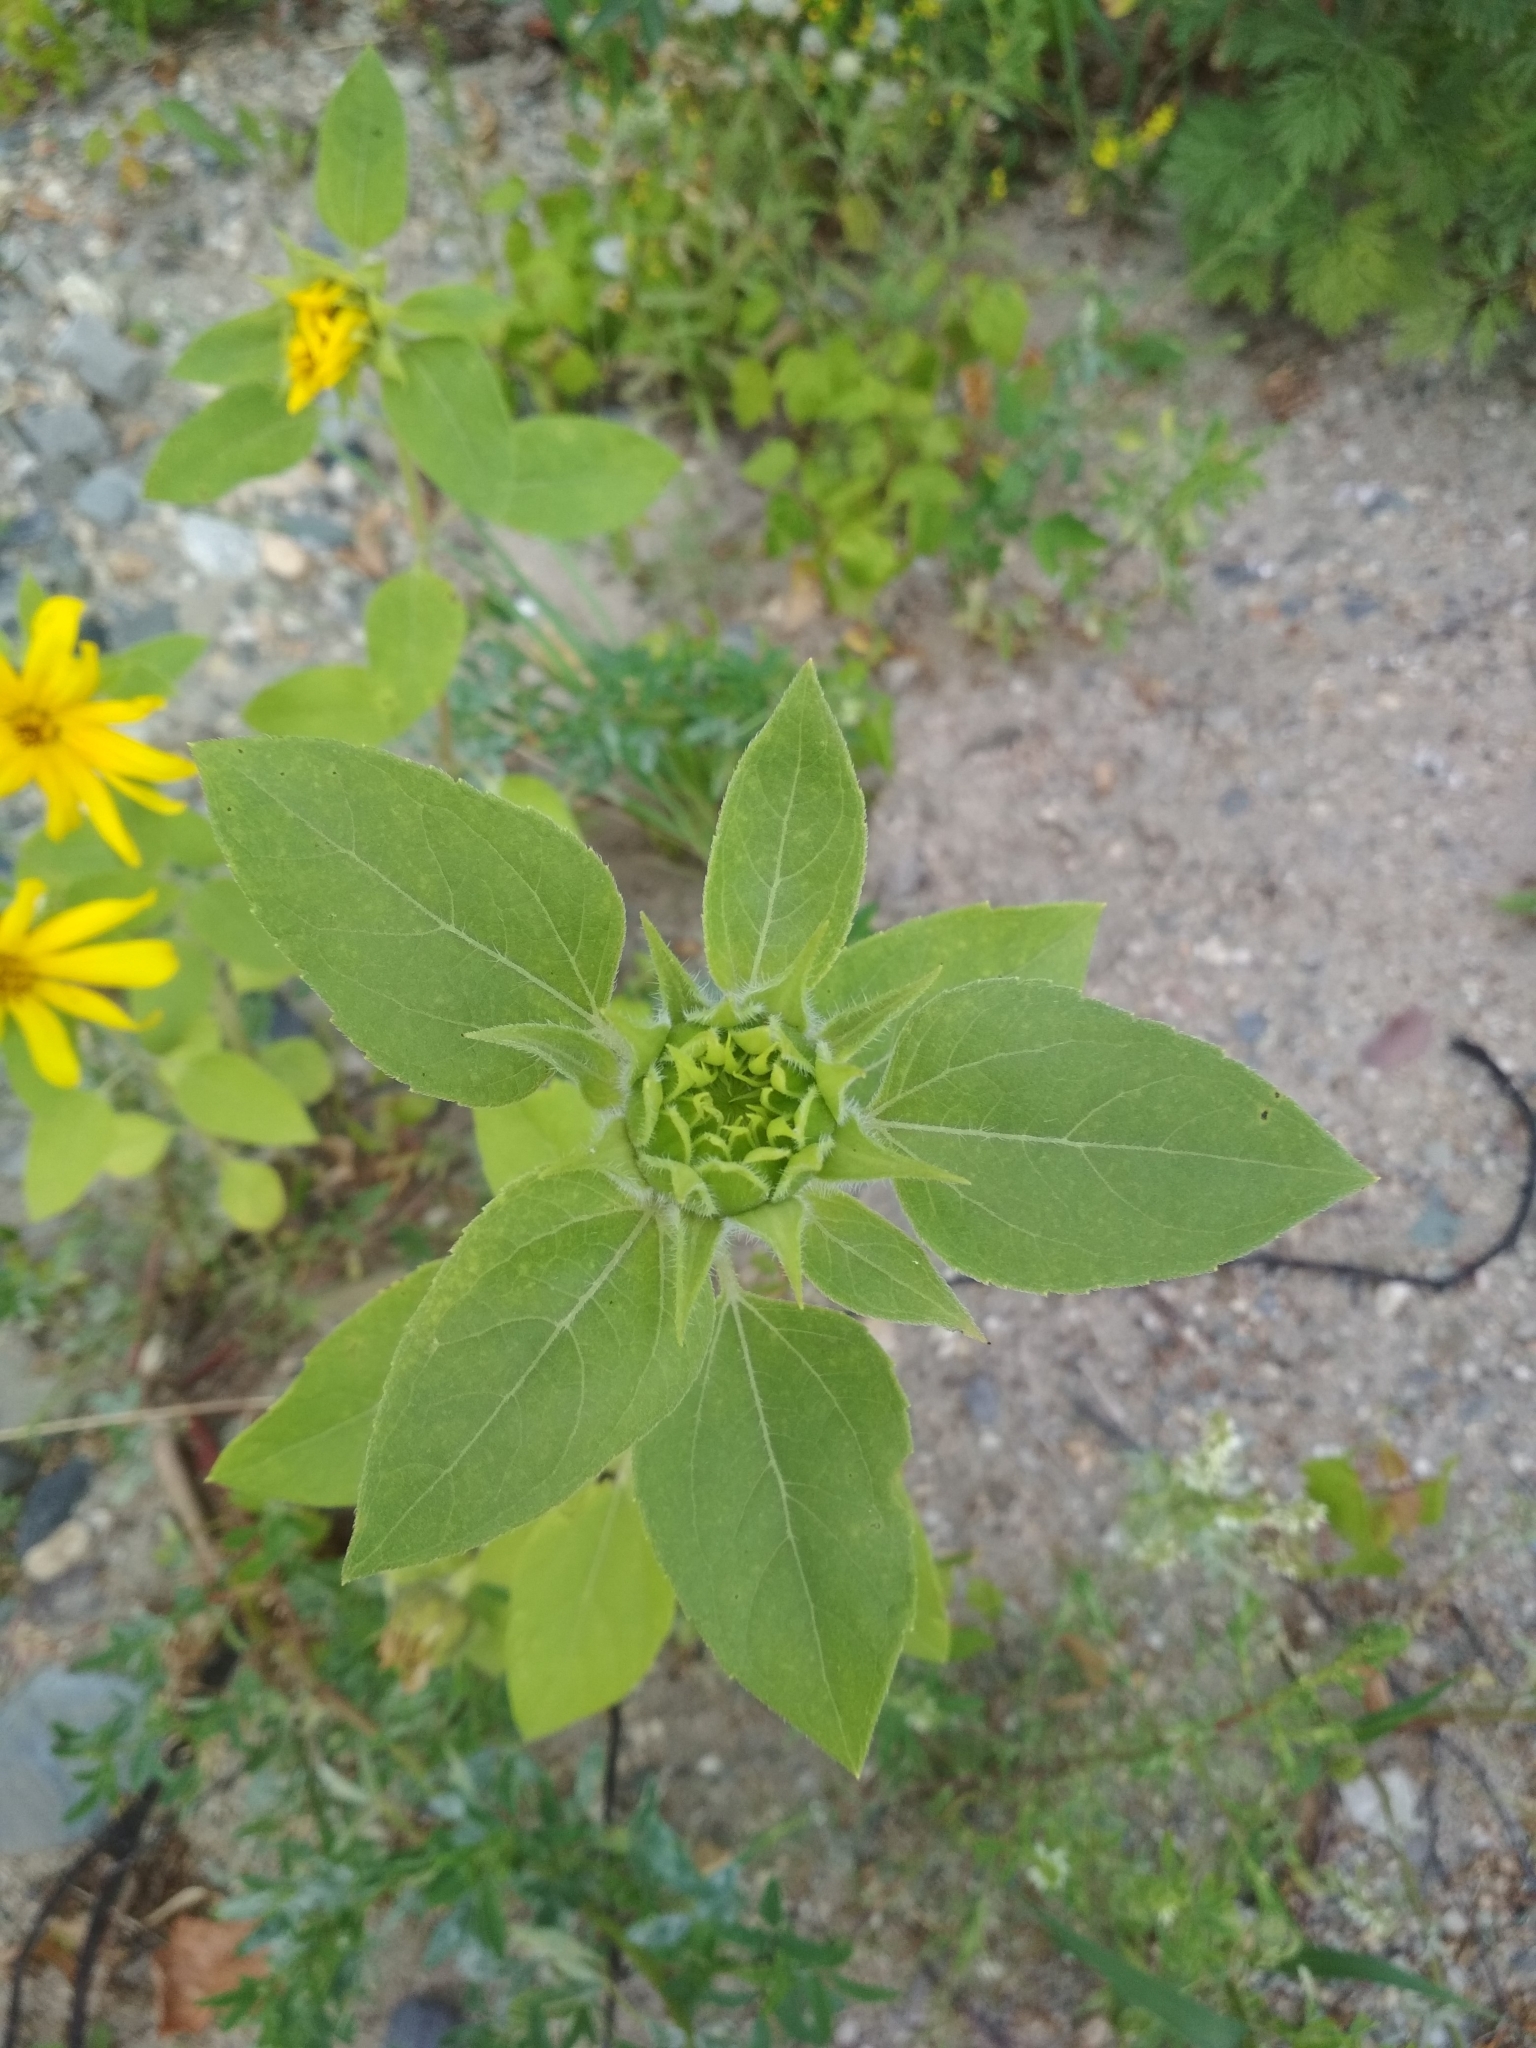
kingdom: Plantae
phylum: Tracheophyta
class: Magnoliopsida
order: Asterales
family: Asteraceae
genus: Helianthus
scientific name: Helianthus annuus
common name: Sunflower
